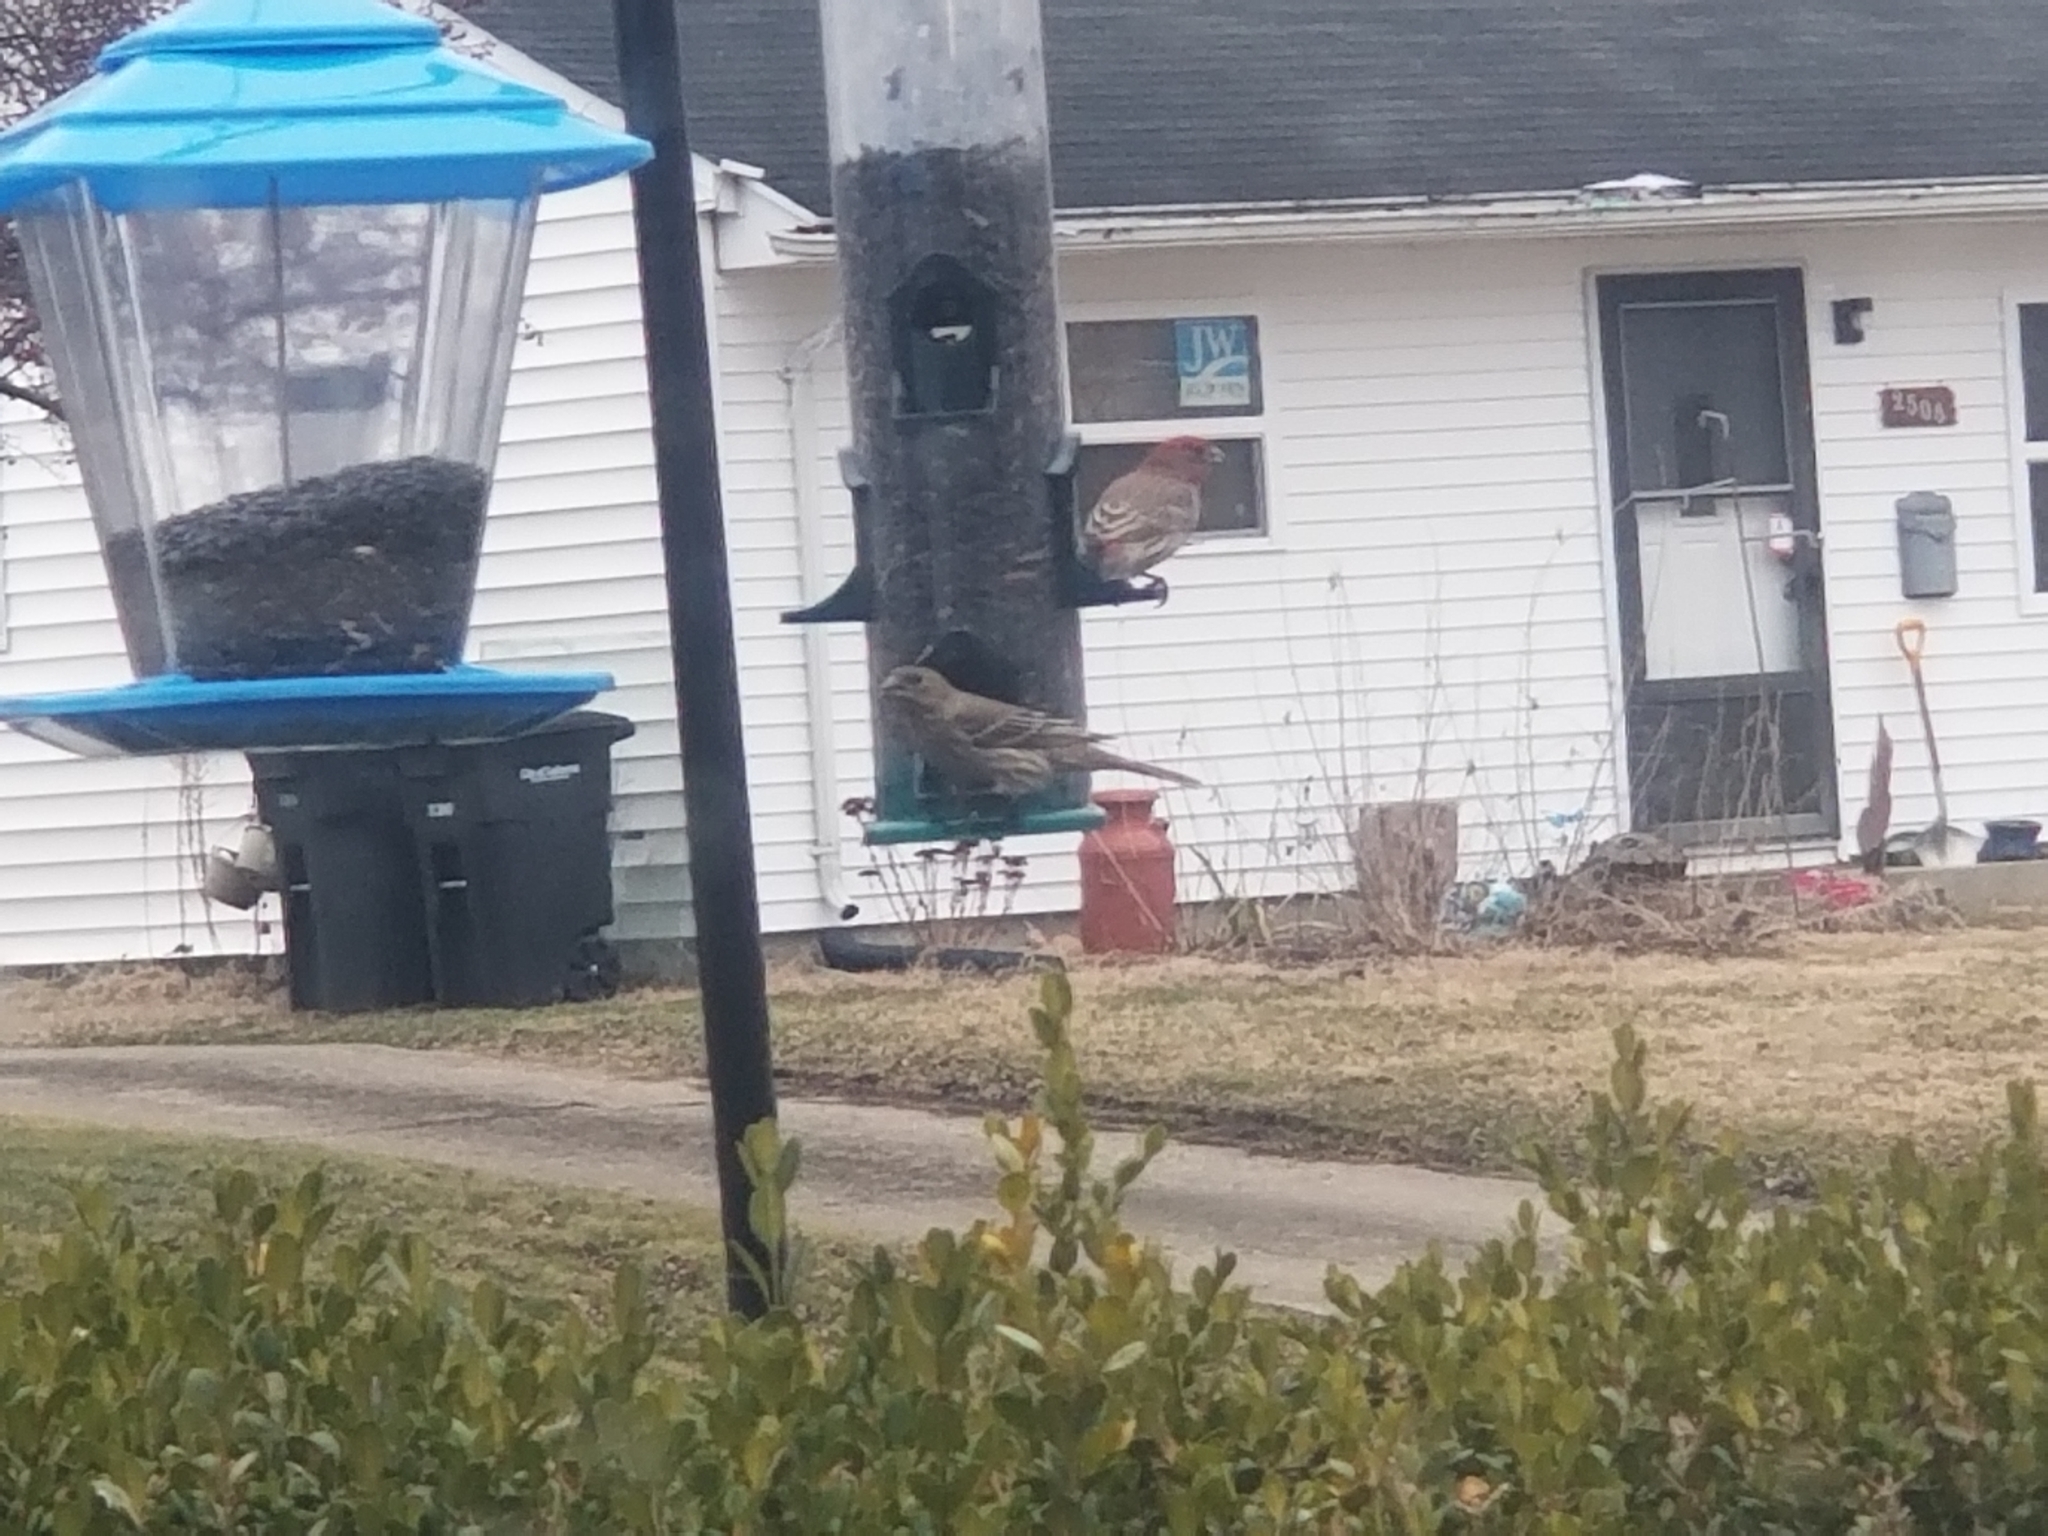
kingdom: Animalia
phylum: Chordata
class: Aves
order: Passeriformes
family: Fringillidae
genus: Haemorhous
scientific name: Haemorhous mexicanus
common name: House finch
